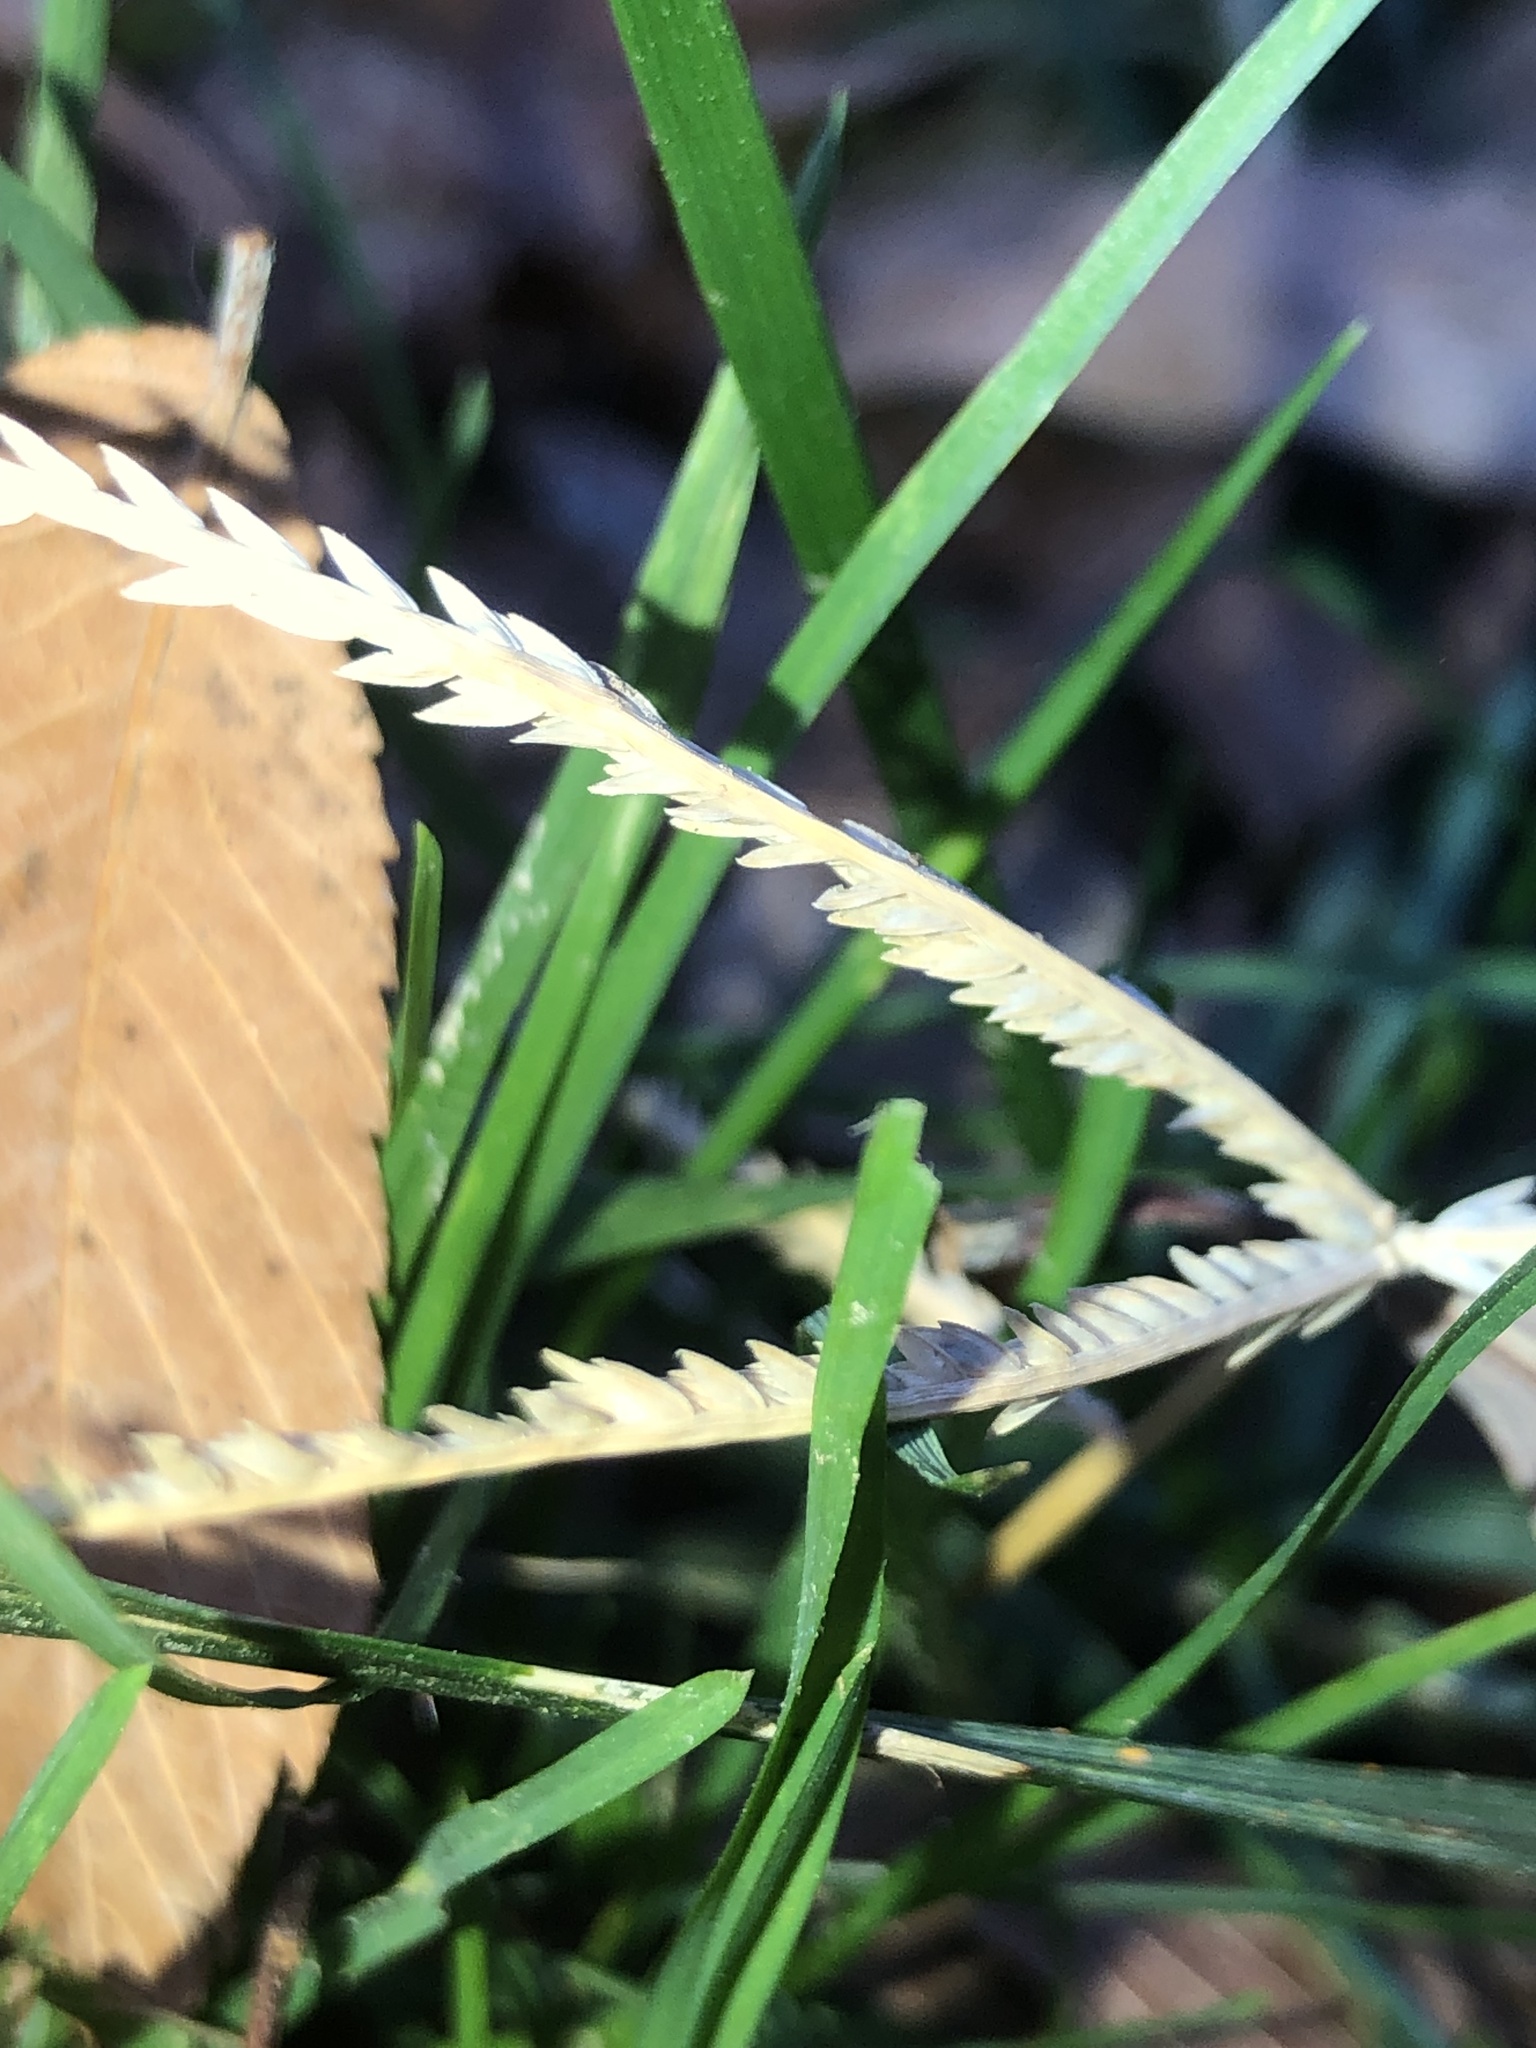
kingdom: Plantae
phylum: Tracheophyta
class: Liliopsida
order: Poales
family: Poaceae
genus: Eleusine
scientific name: Eleusine indica
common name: Yard-grass
